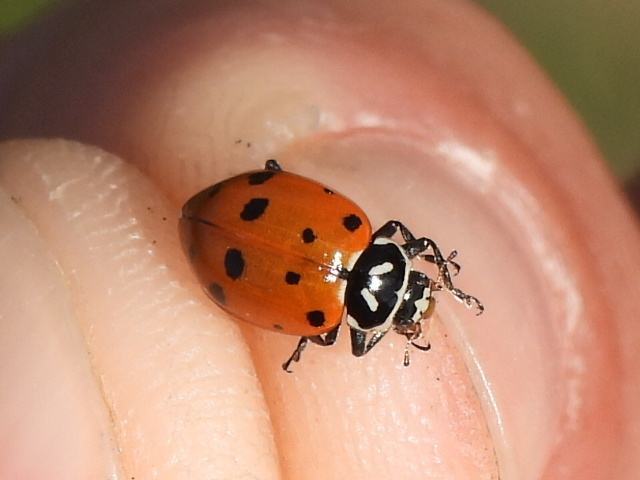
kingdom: Animalia
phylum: Arthropoda
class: Insecta
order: Coleoptera
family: Coccinellidae
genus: Hippodamia
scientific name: Hippodamia convergens
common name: Convergent lady beetle
